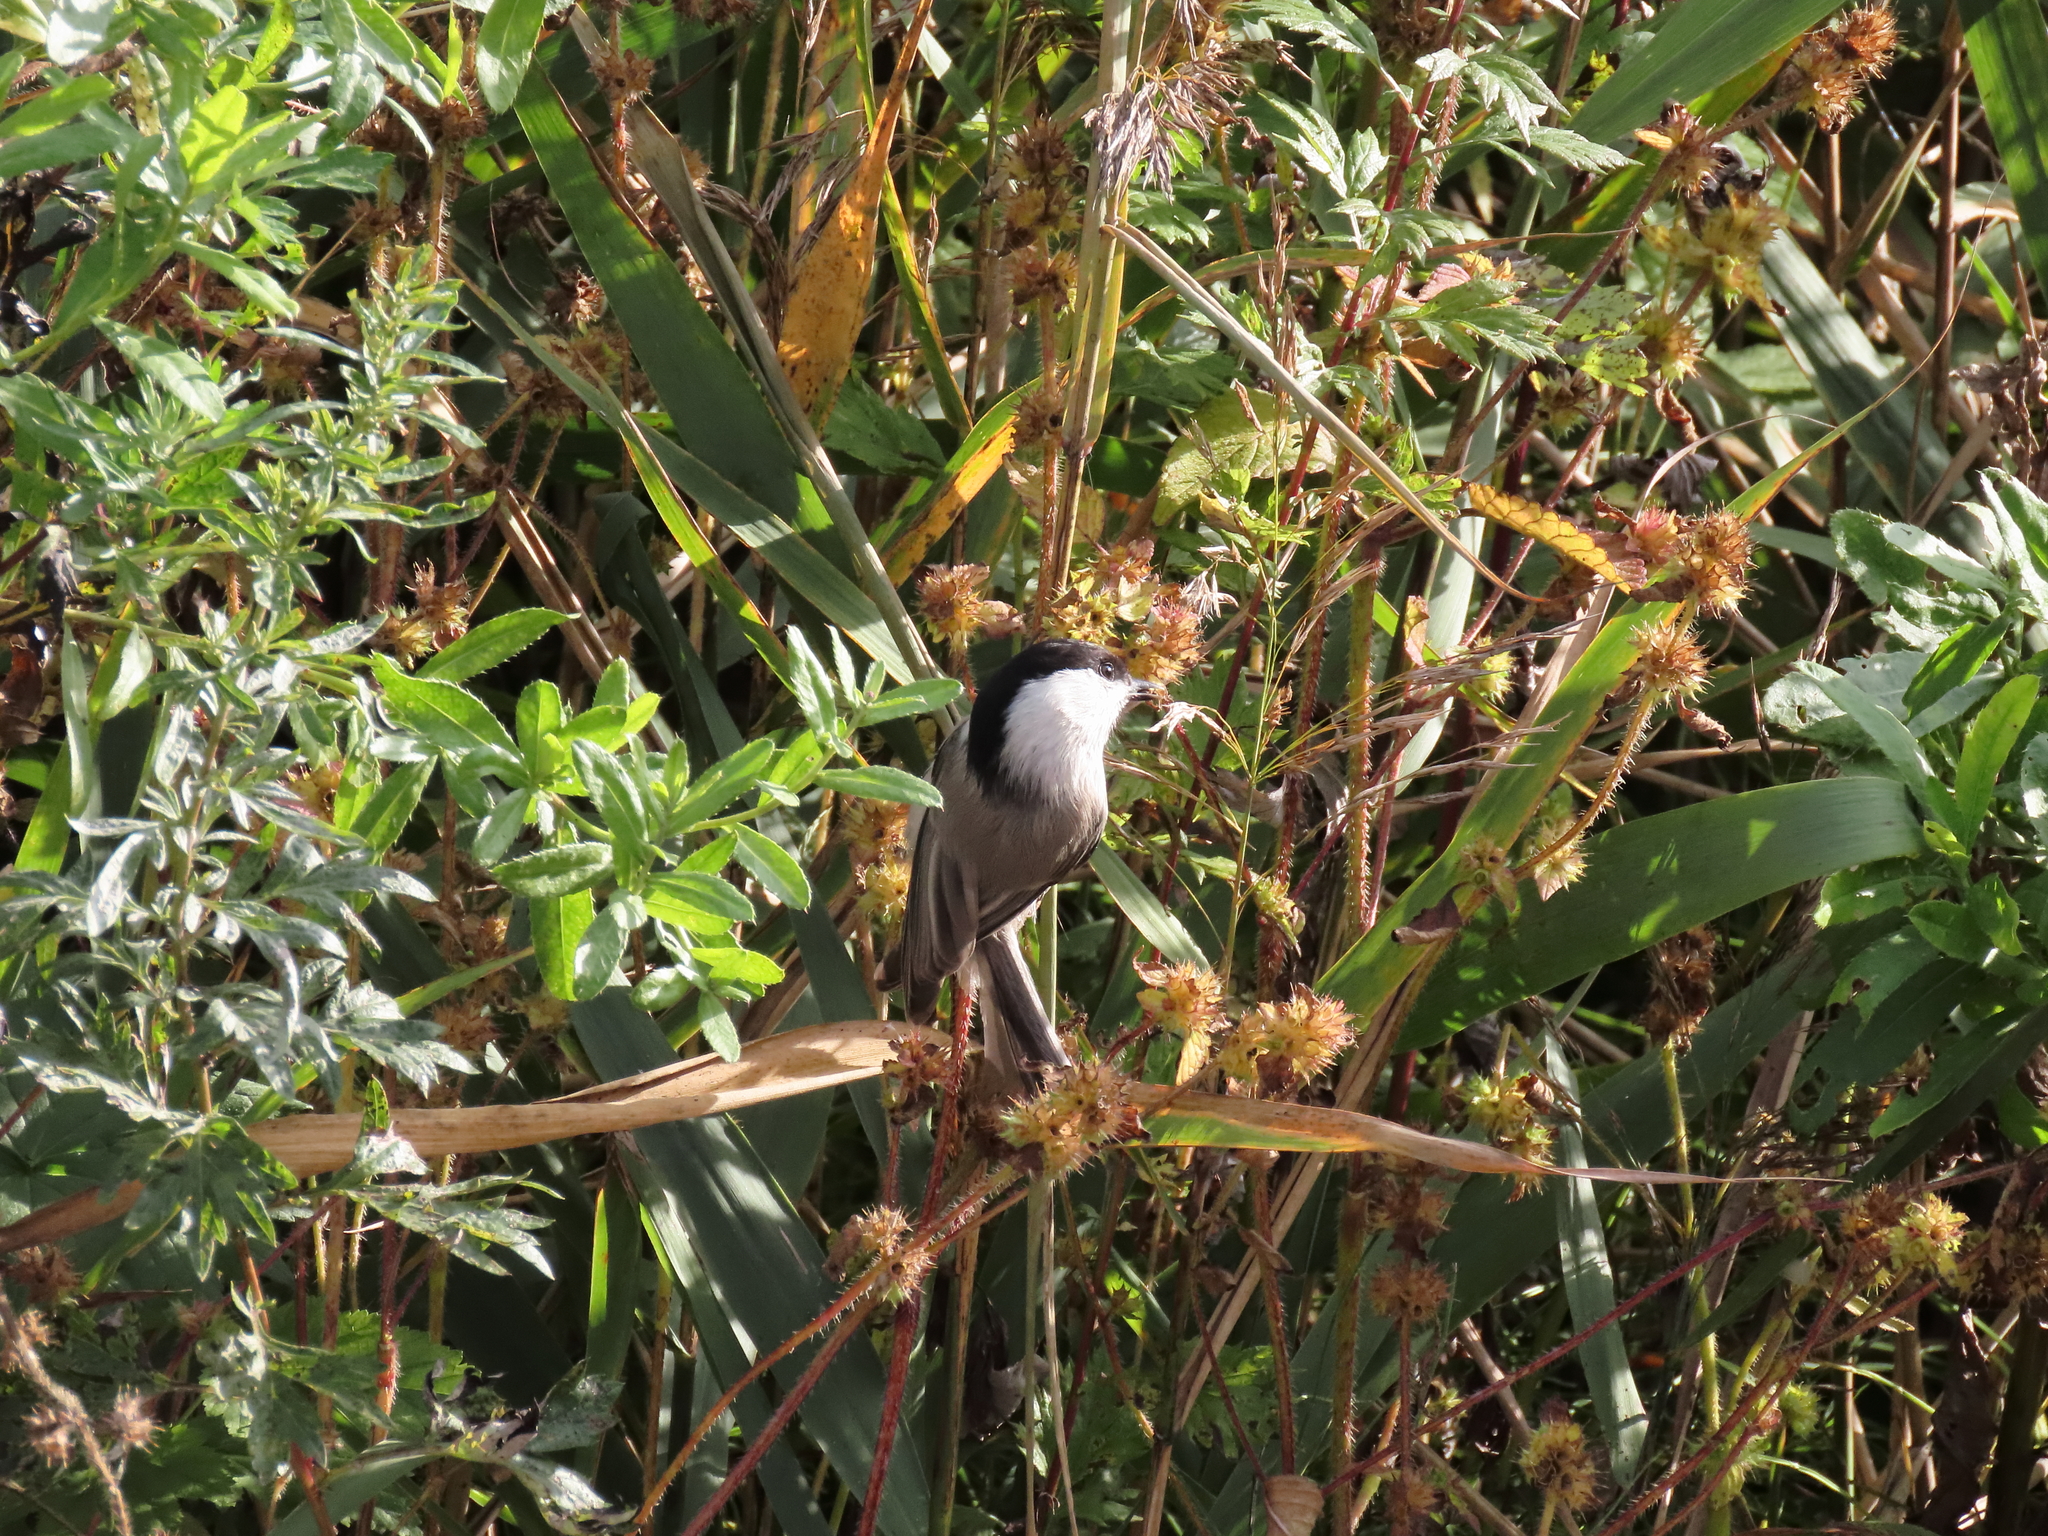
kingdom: Animalia
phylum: Chordata
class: Aves
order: Passeriformes
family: Paridae
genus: Poecile
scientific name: Poecile montanus
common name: Willow tit
